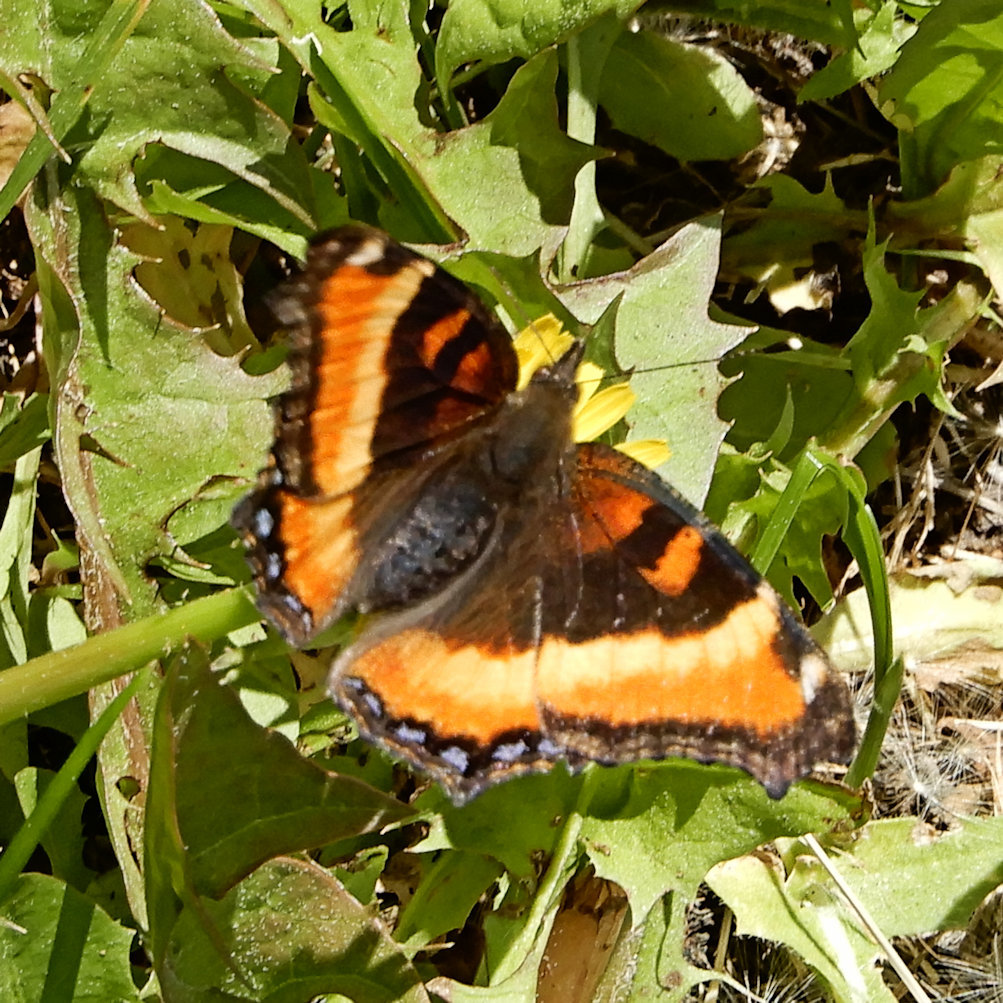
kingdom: Animalia
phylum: Arthropoda
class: Insecta
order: Lepidoptera
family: Nymphalidae
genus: Aglais
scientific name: Aglais milberti
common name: Milbert's tortoiseshell
